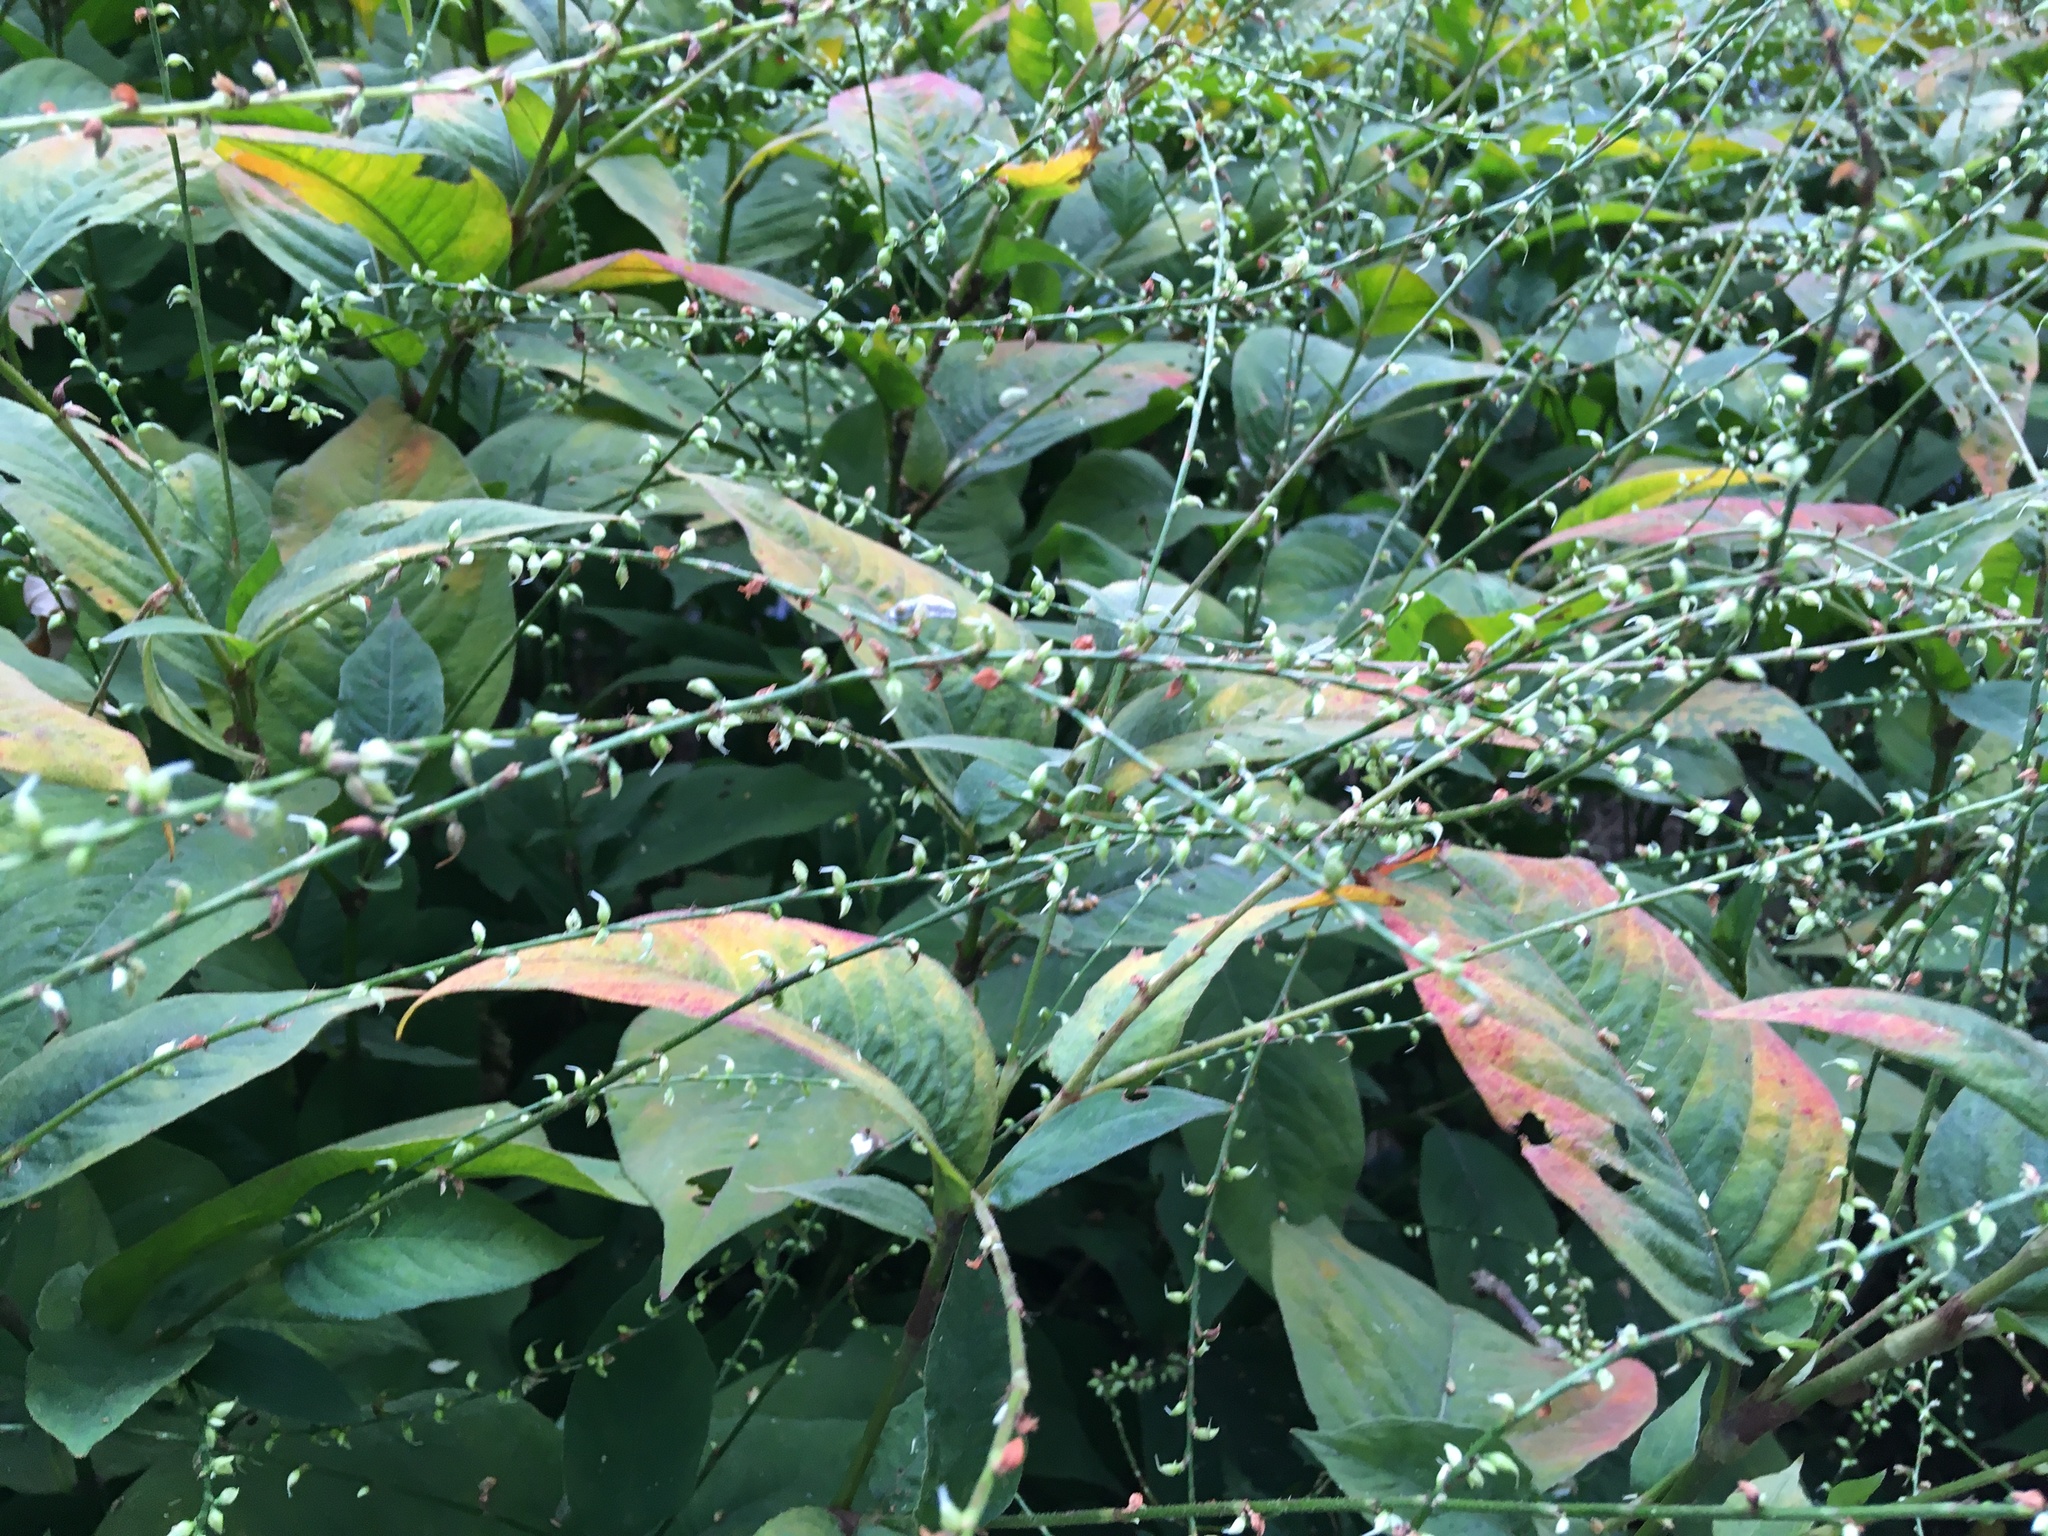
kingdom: Plantae
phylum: Tracheophyta
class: Magnoliopsida
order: Caryophyllales
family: Polygonaceae
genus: Persicaria
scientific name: Persicaria virginiana
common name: Jumpseed
